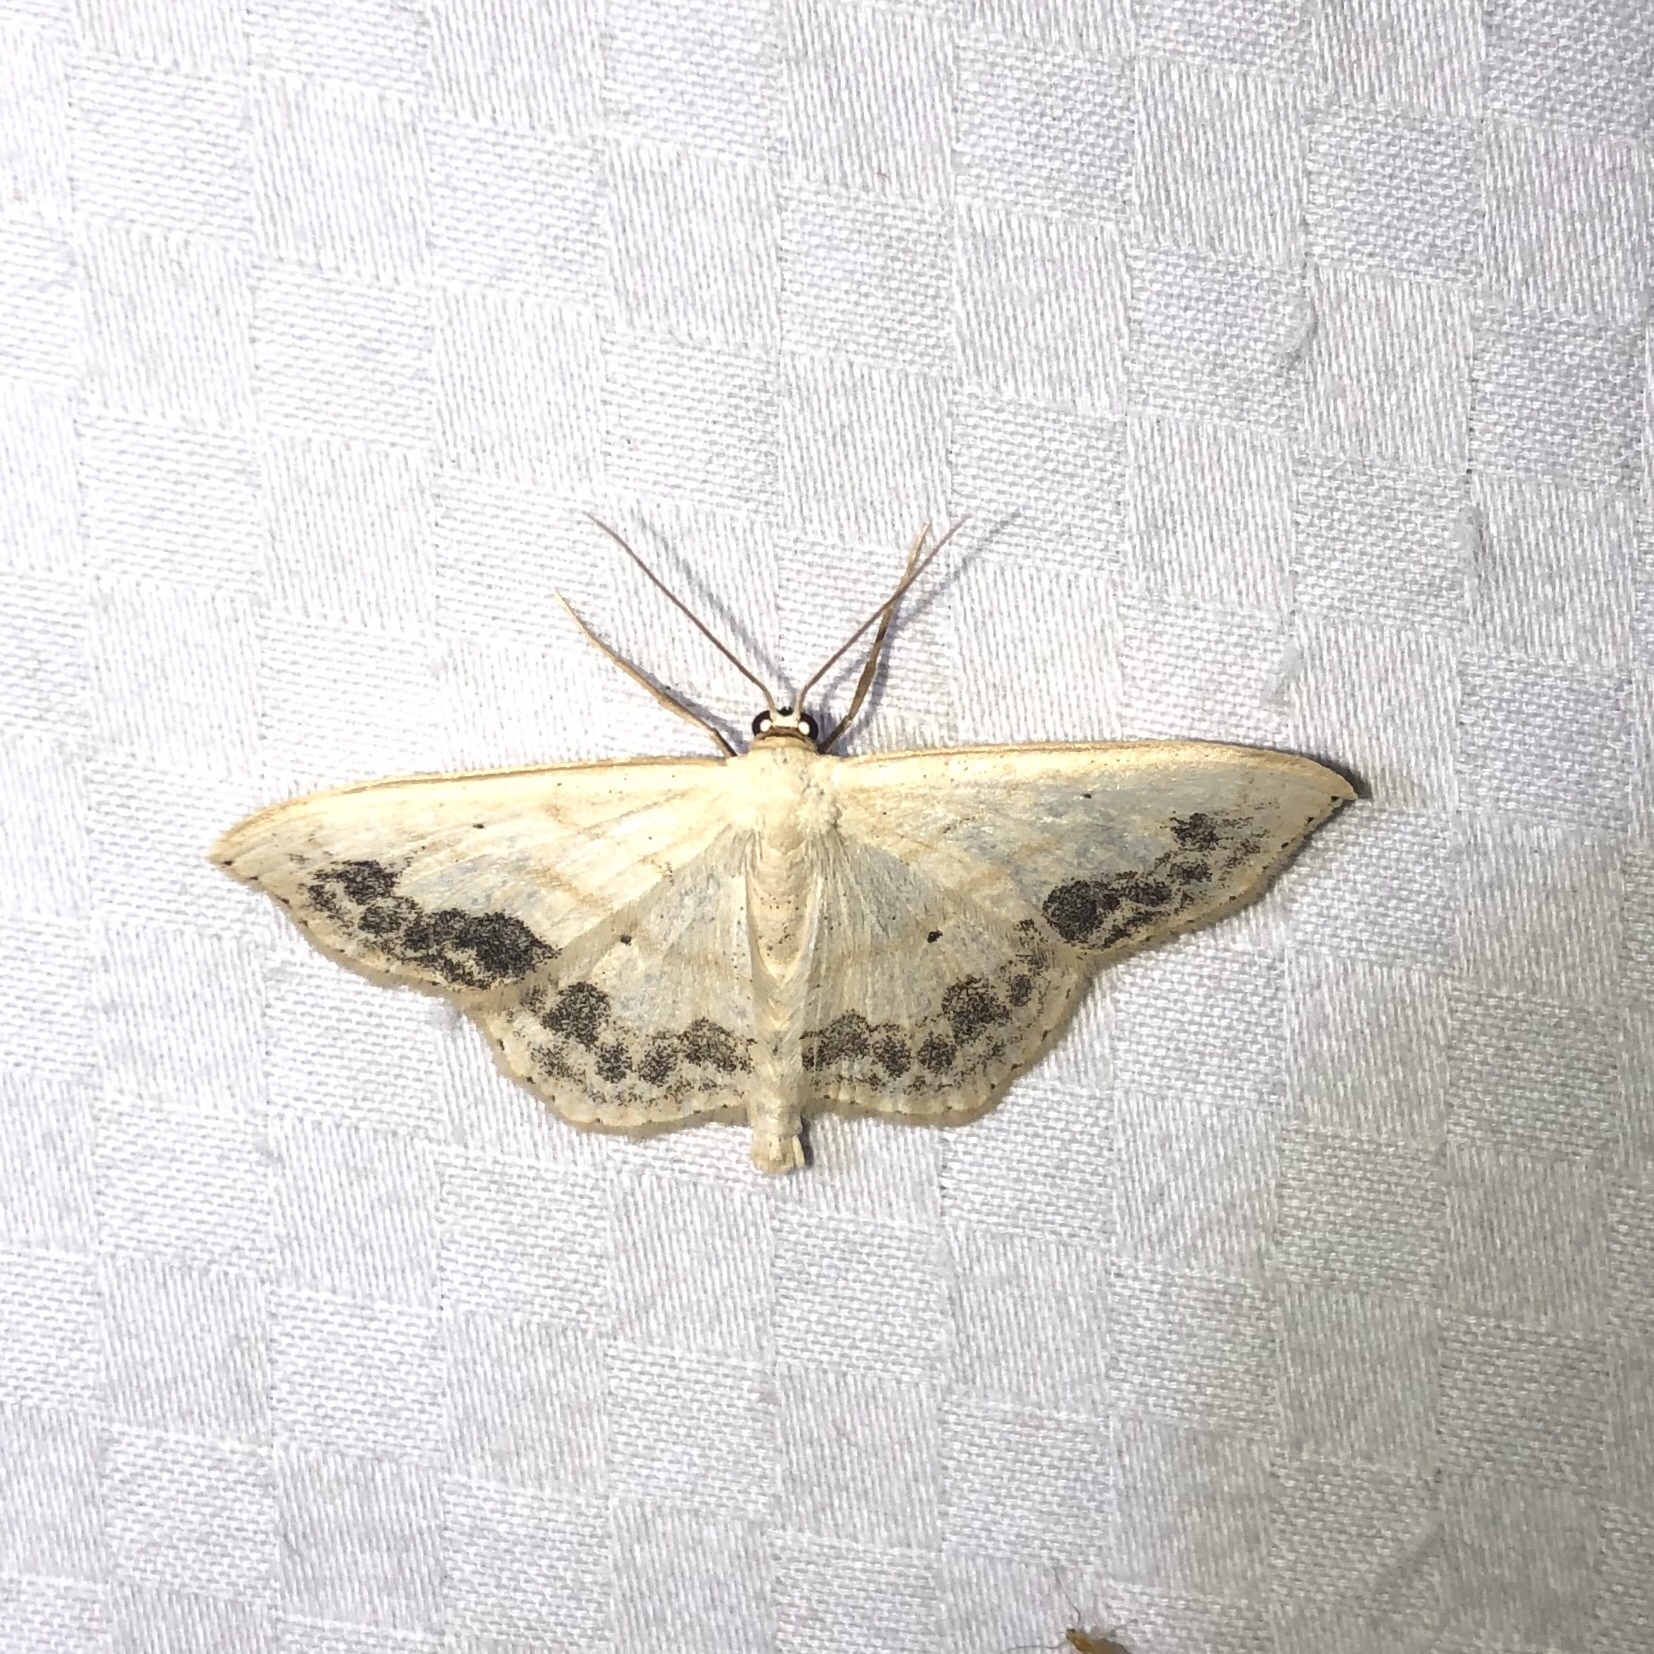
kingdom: Animalia
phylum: Arthropoda
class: Insecta
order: Lepidoptera
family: Geometridae
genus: Scopula
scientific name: Scopula limboundata
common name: Large lace border
